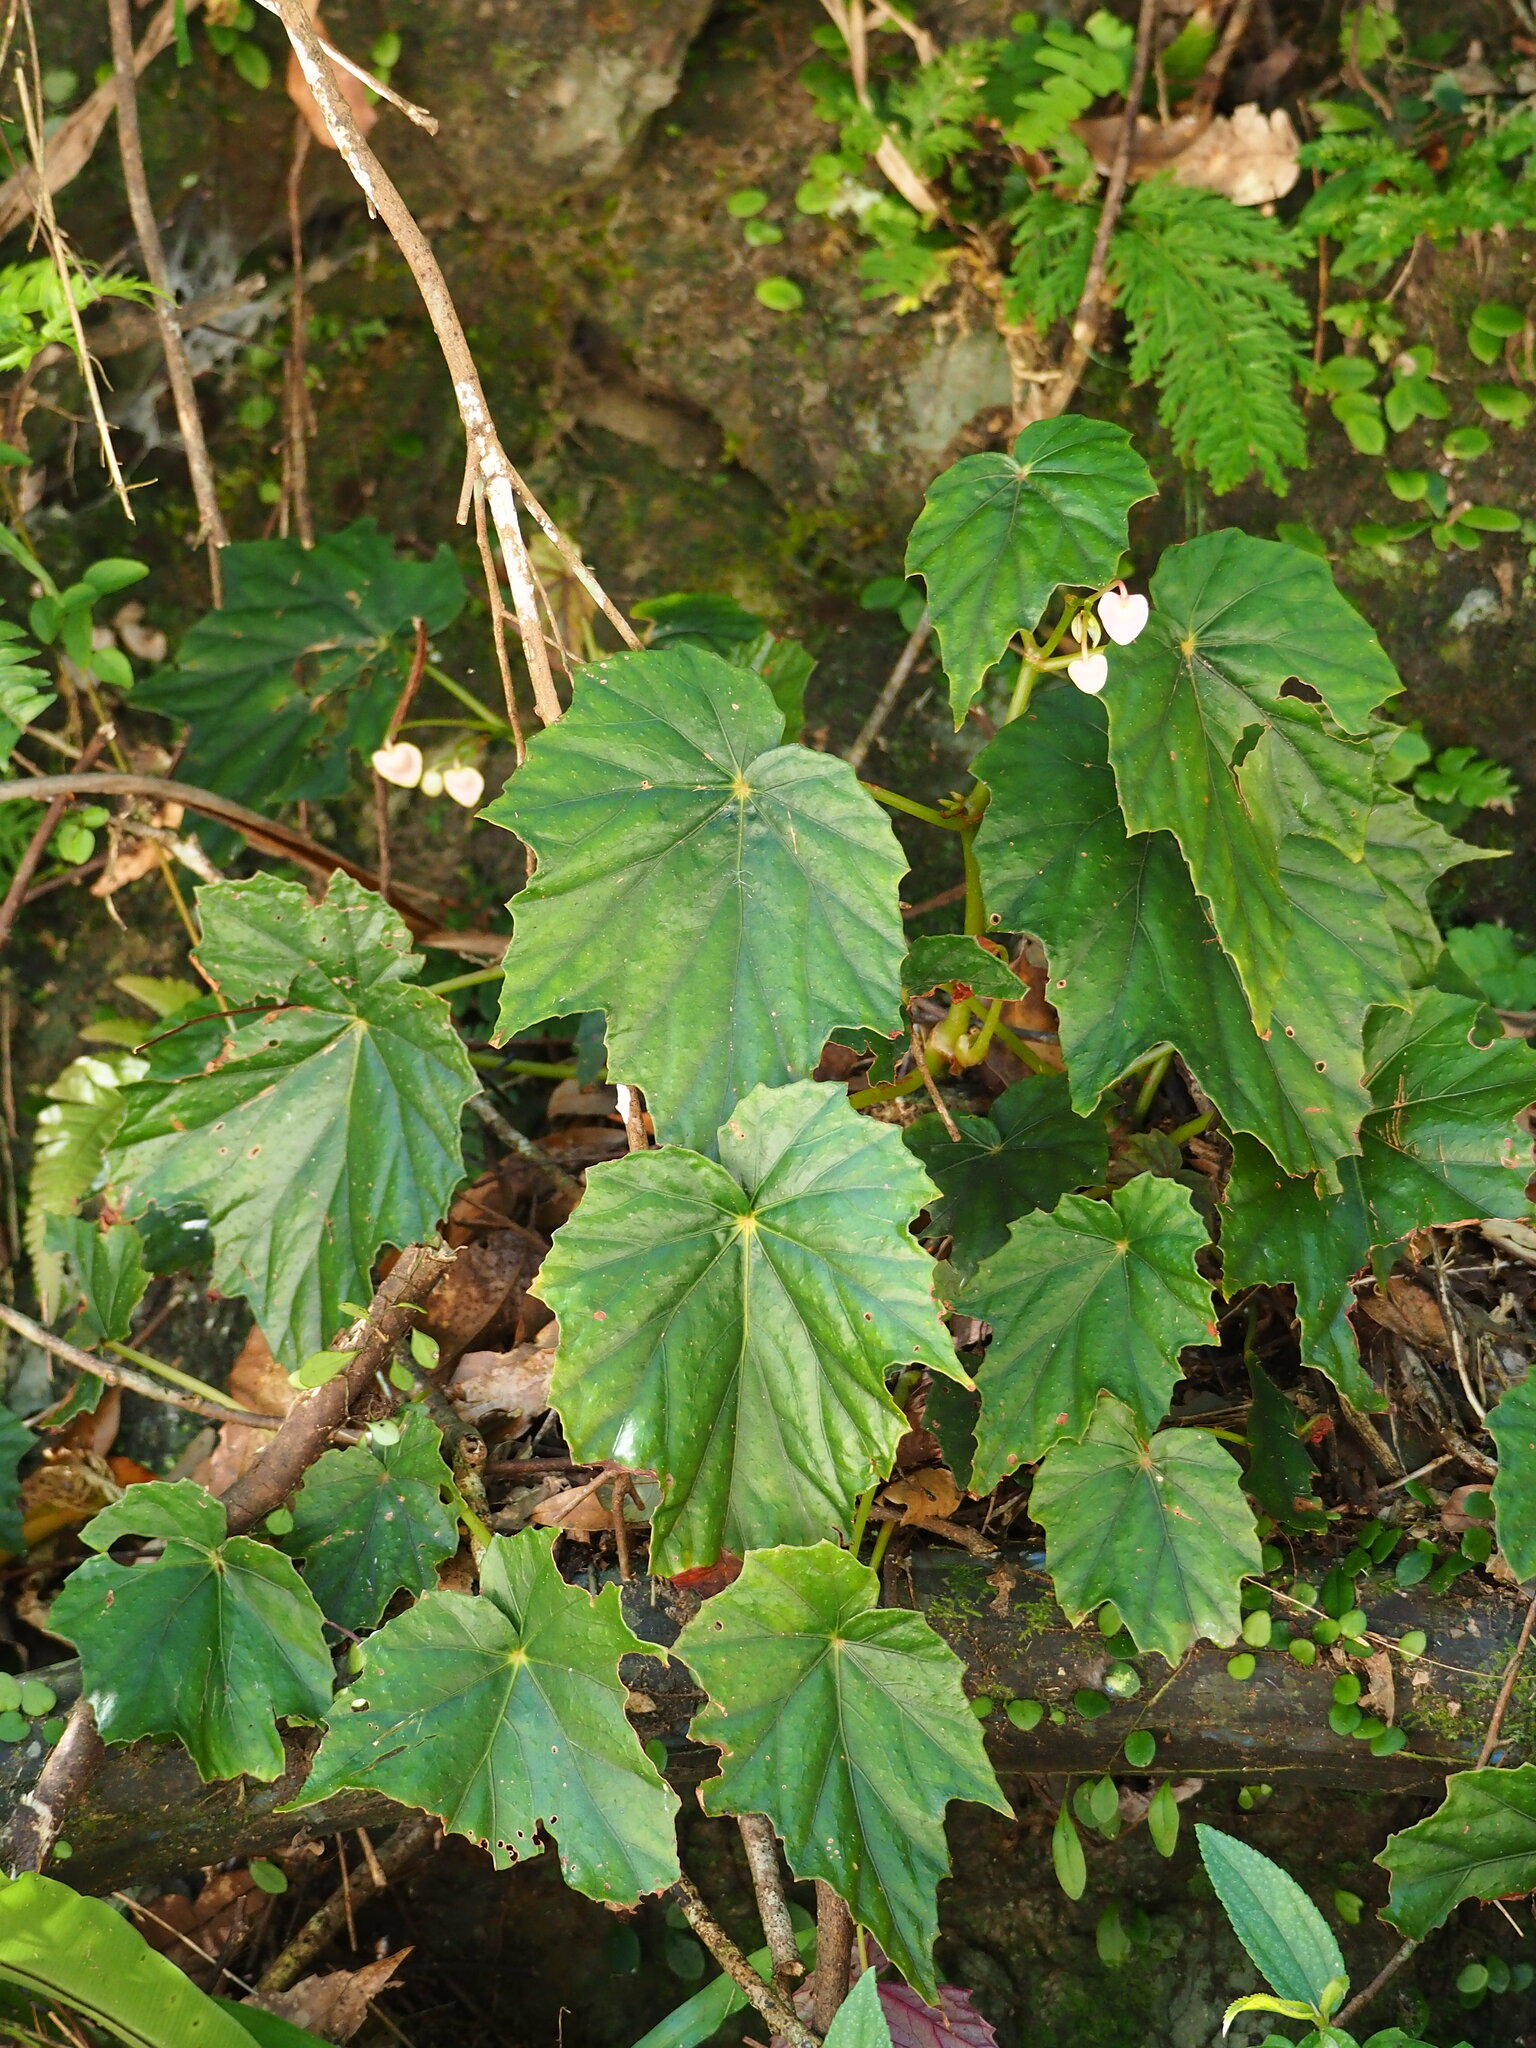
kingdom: Plantae
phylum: Tracheophyta
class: Magnoliopsida
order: Cucurbitales
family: Begoniaceae
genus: Begonia
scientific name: Begonia formosana
